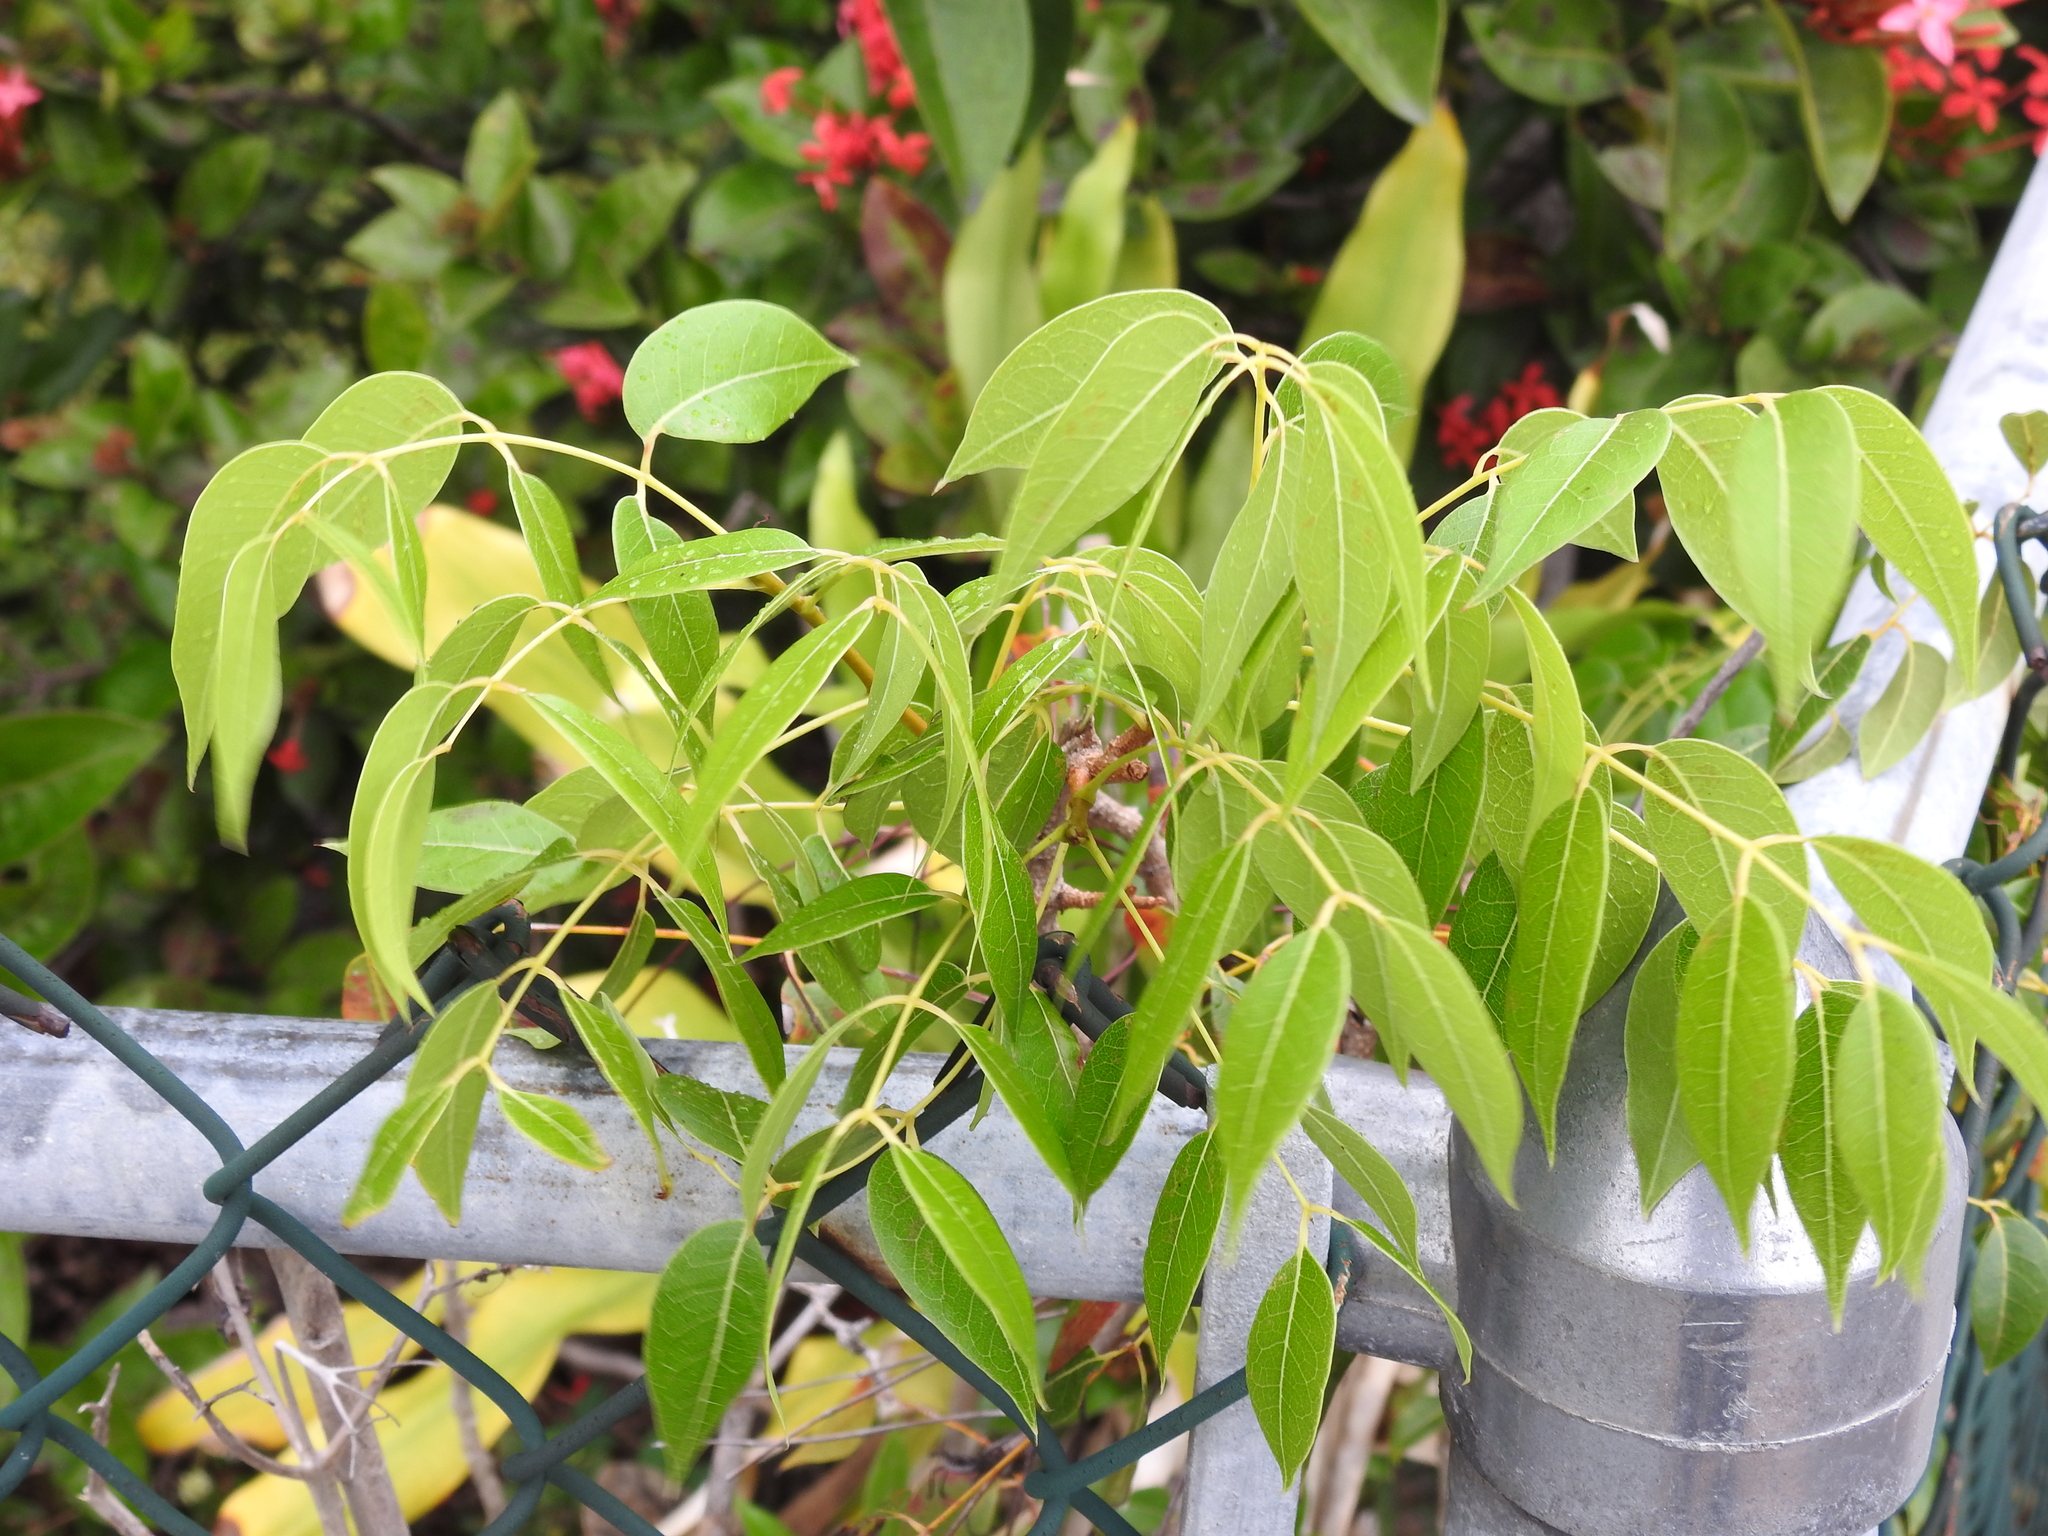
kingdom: Plantae
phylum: Tracheophyta
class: Magnoliopsida
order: Sapindales
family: Meliaceae
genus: Swietenia
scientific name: Swietenia mahagoni
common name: West indian mahogany
